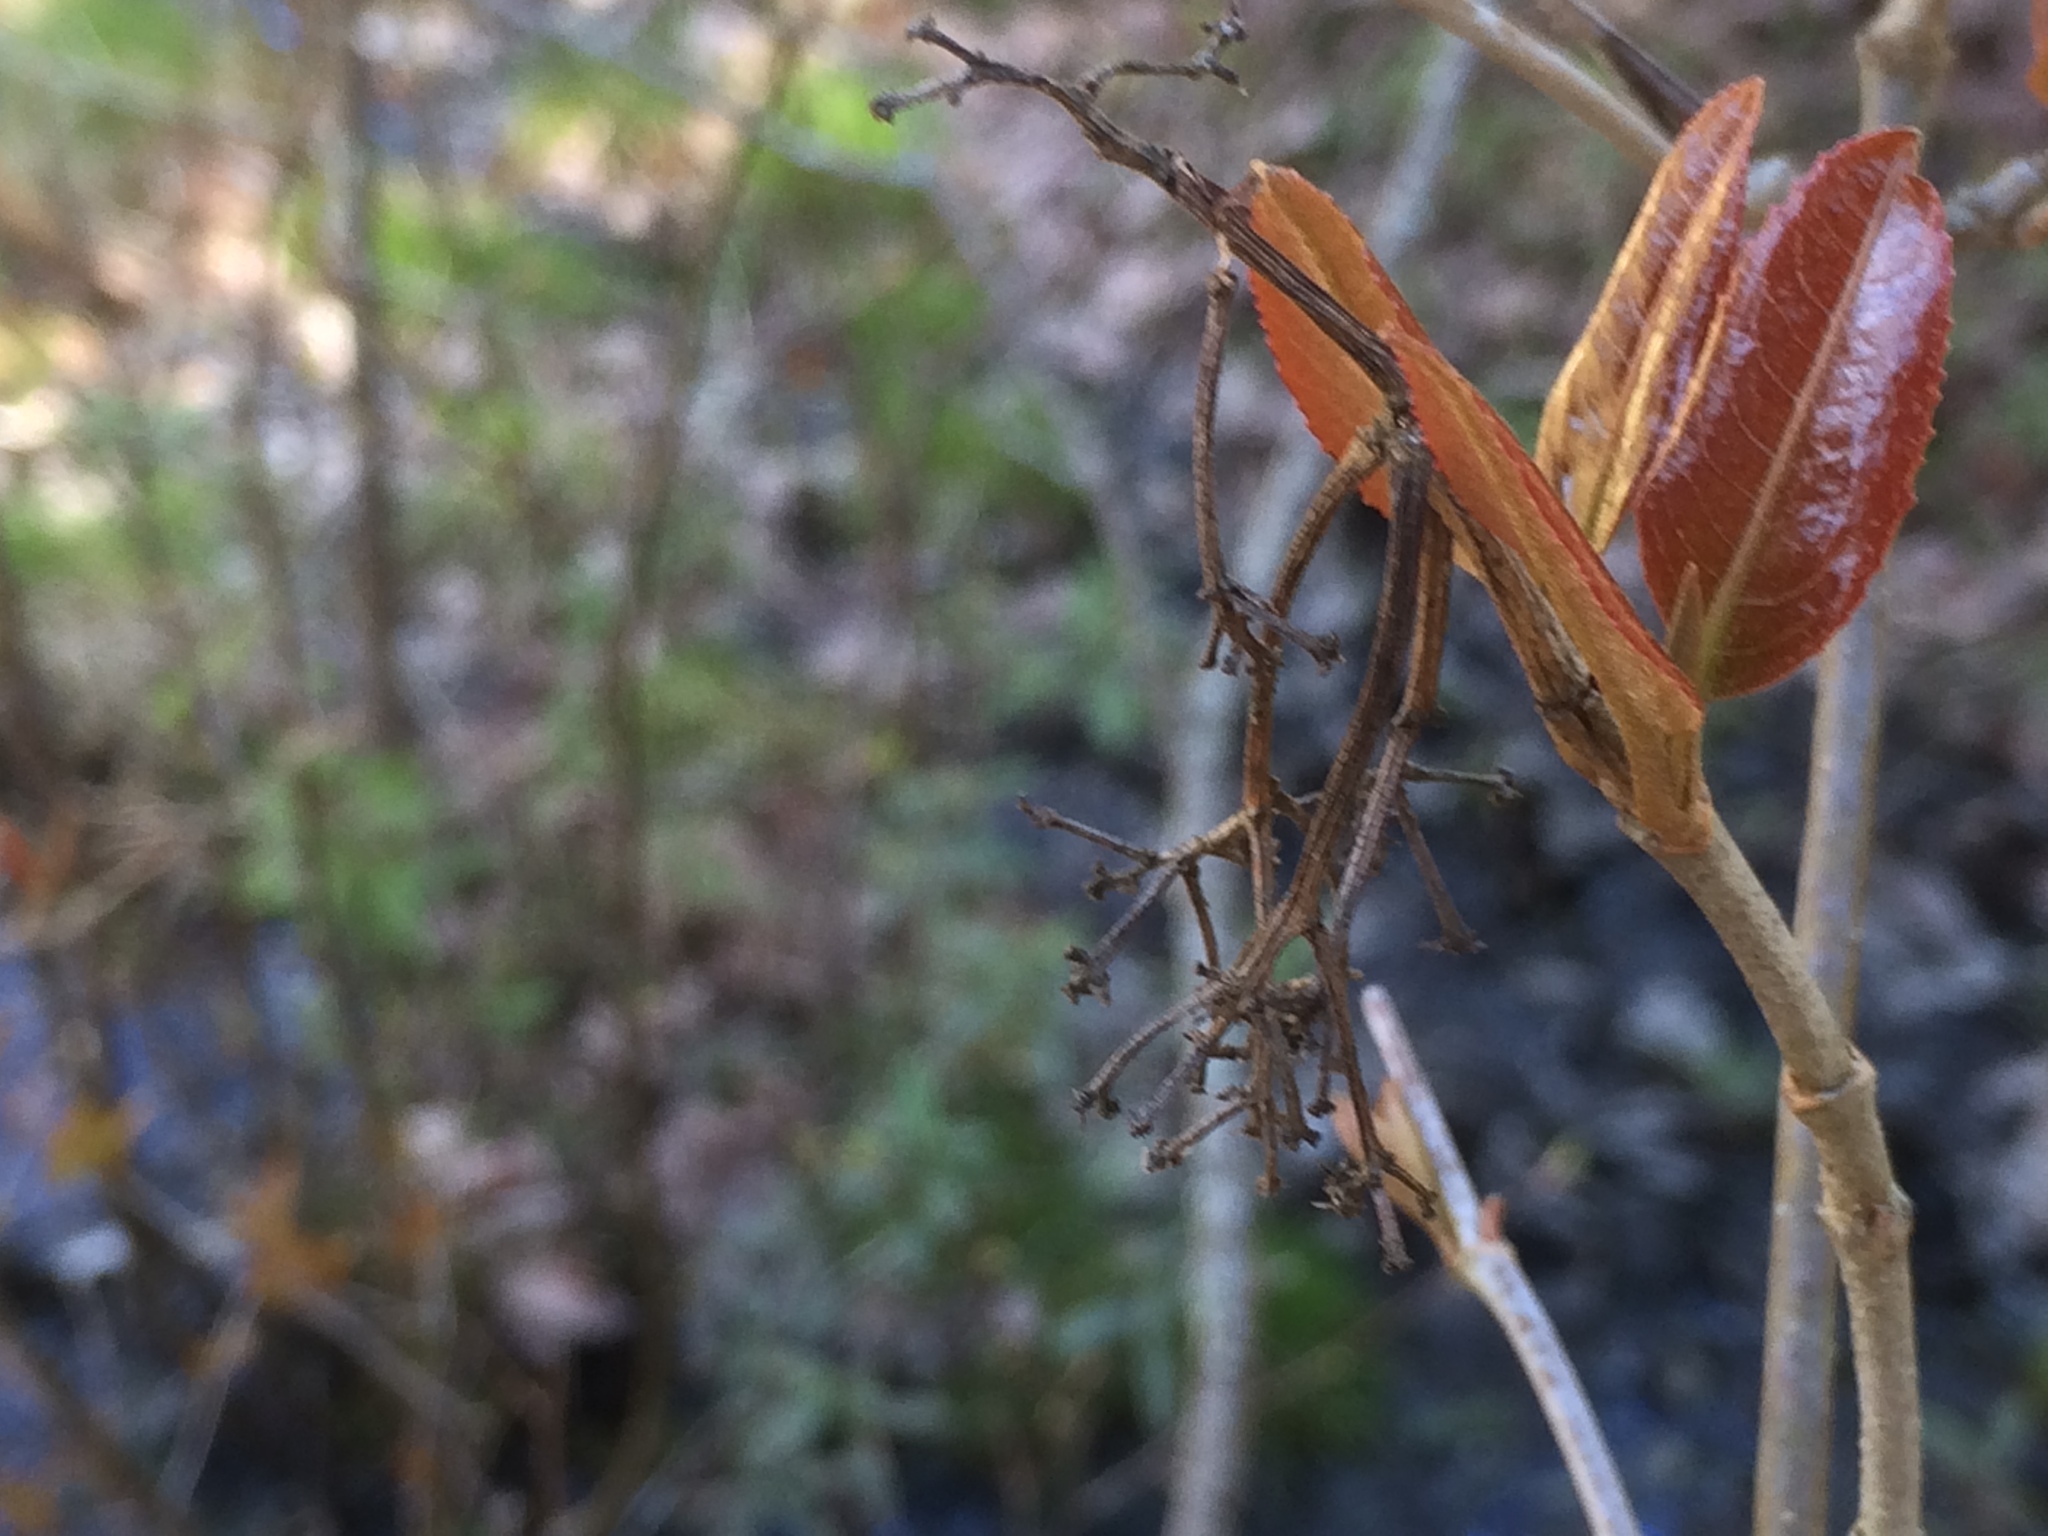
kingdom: Plantae
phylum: Tracheophyta
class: Magnoliopsida
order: Dipsacales
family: Viburnaceae
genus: Viburnum
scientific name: Viburnum cassinoides
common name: Swamp haw
